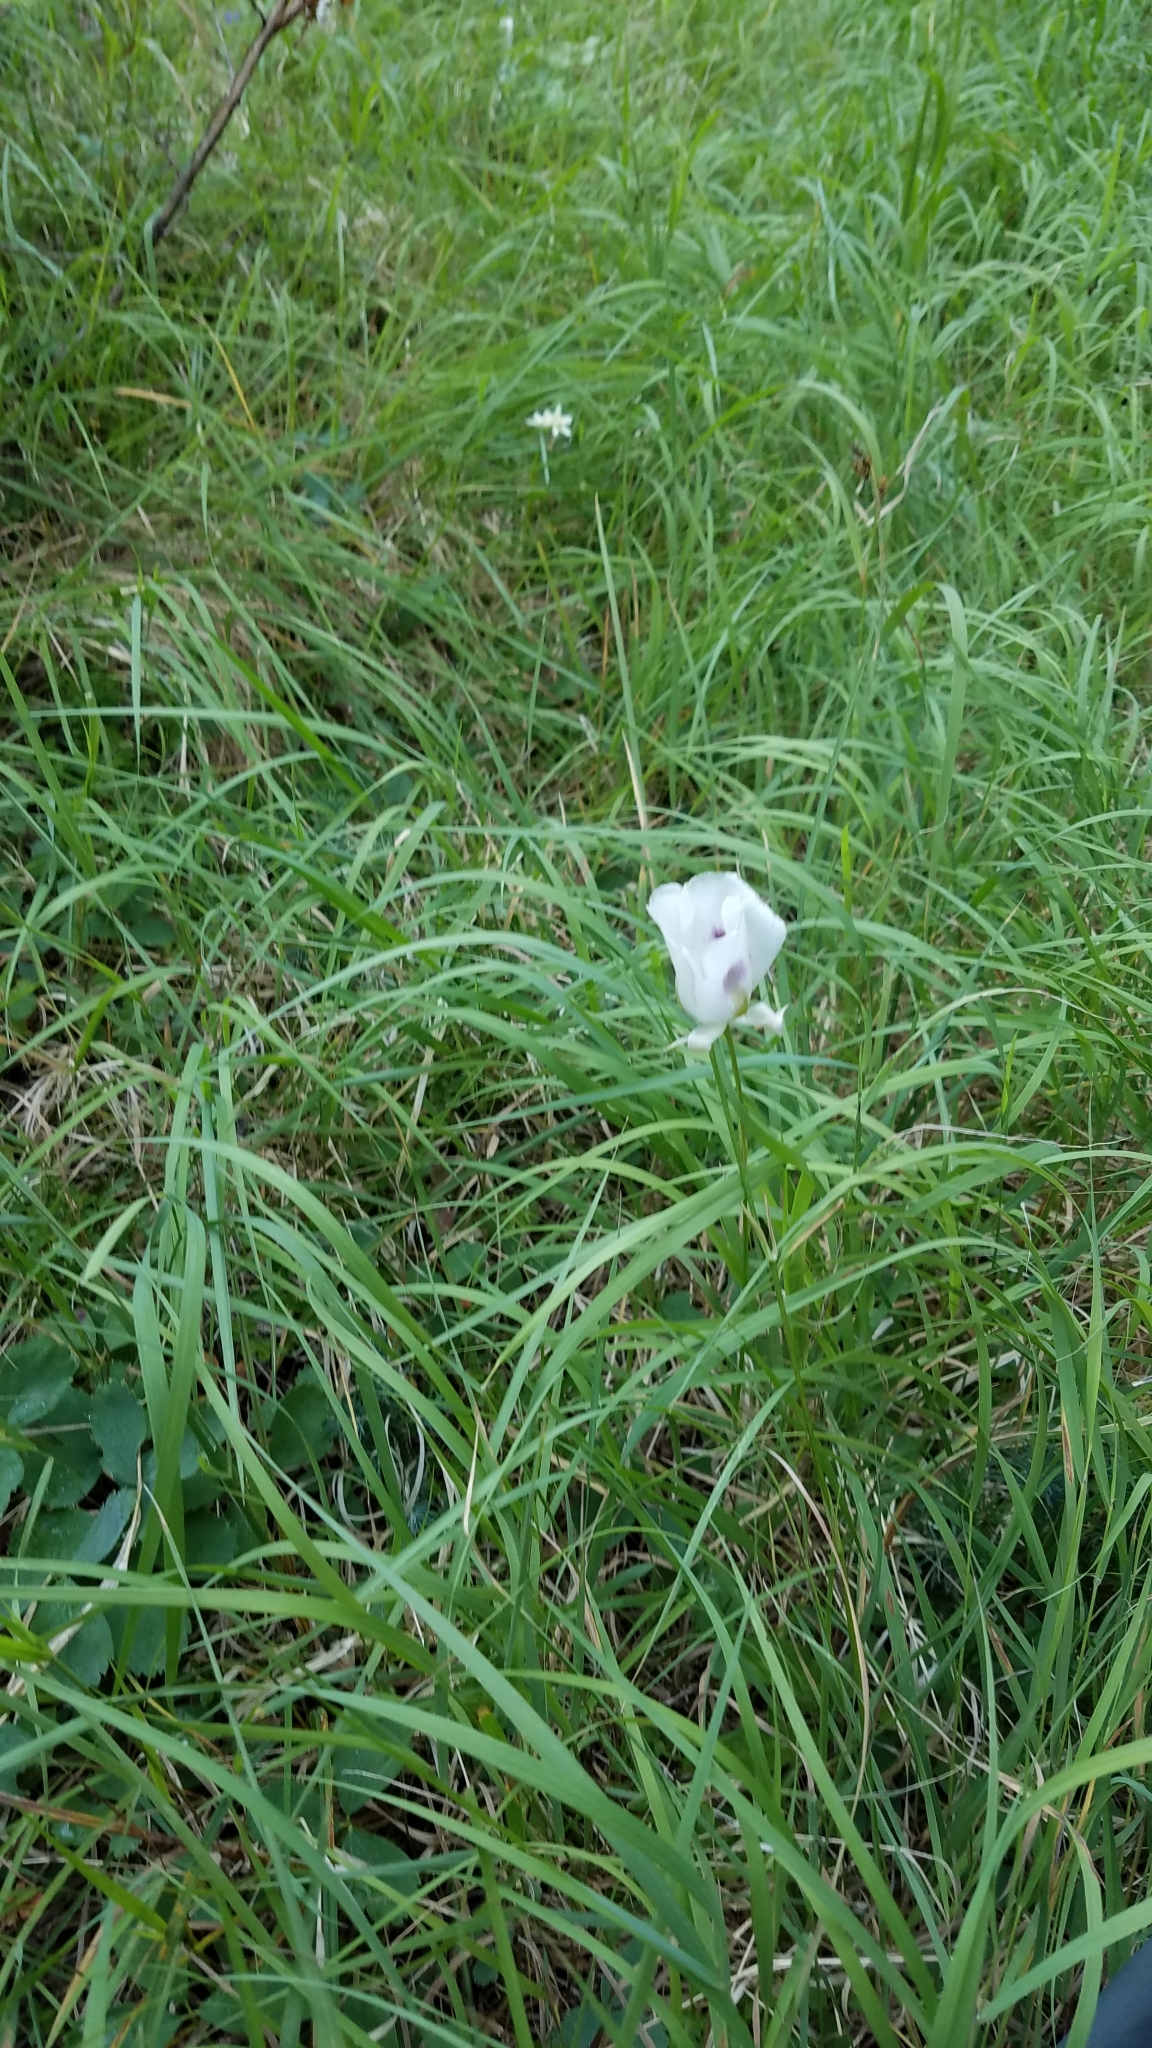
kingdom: Plantae
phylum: Tracheophyta
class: Liliopsida
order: Liliales
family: Liliaceae
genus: Calochortus
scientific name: Calochortus eurycarpus
